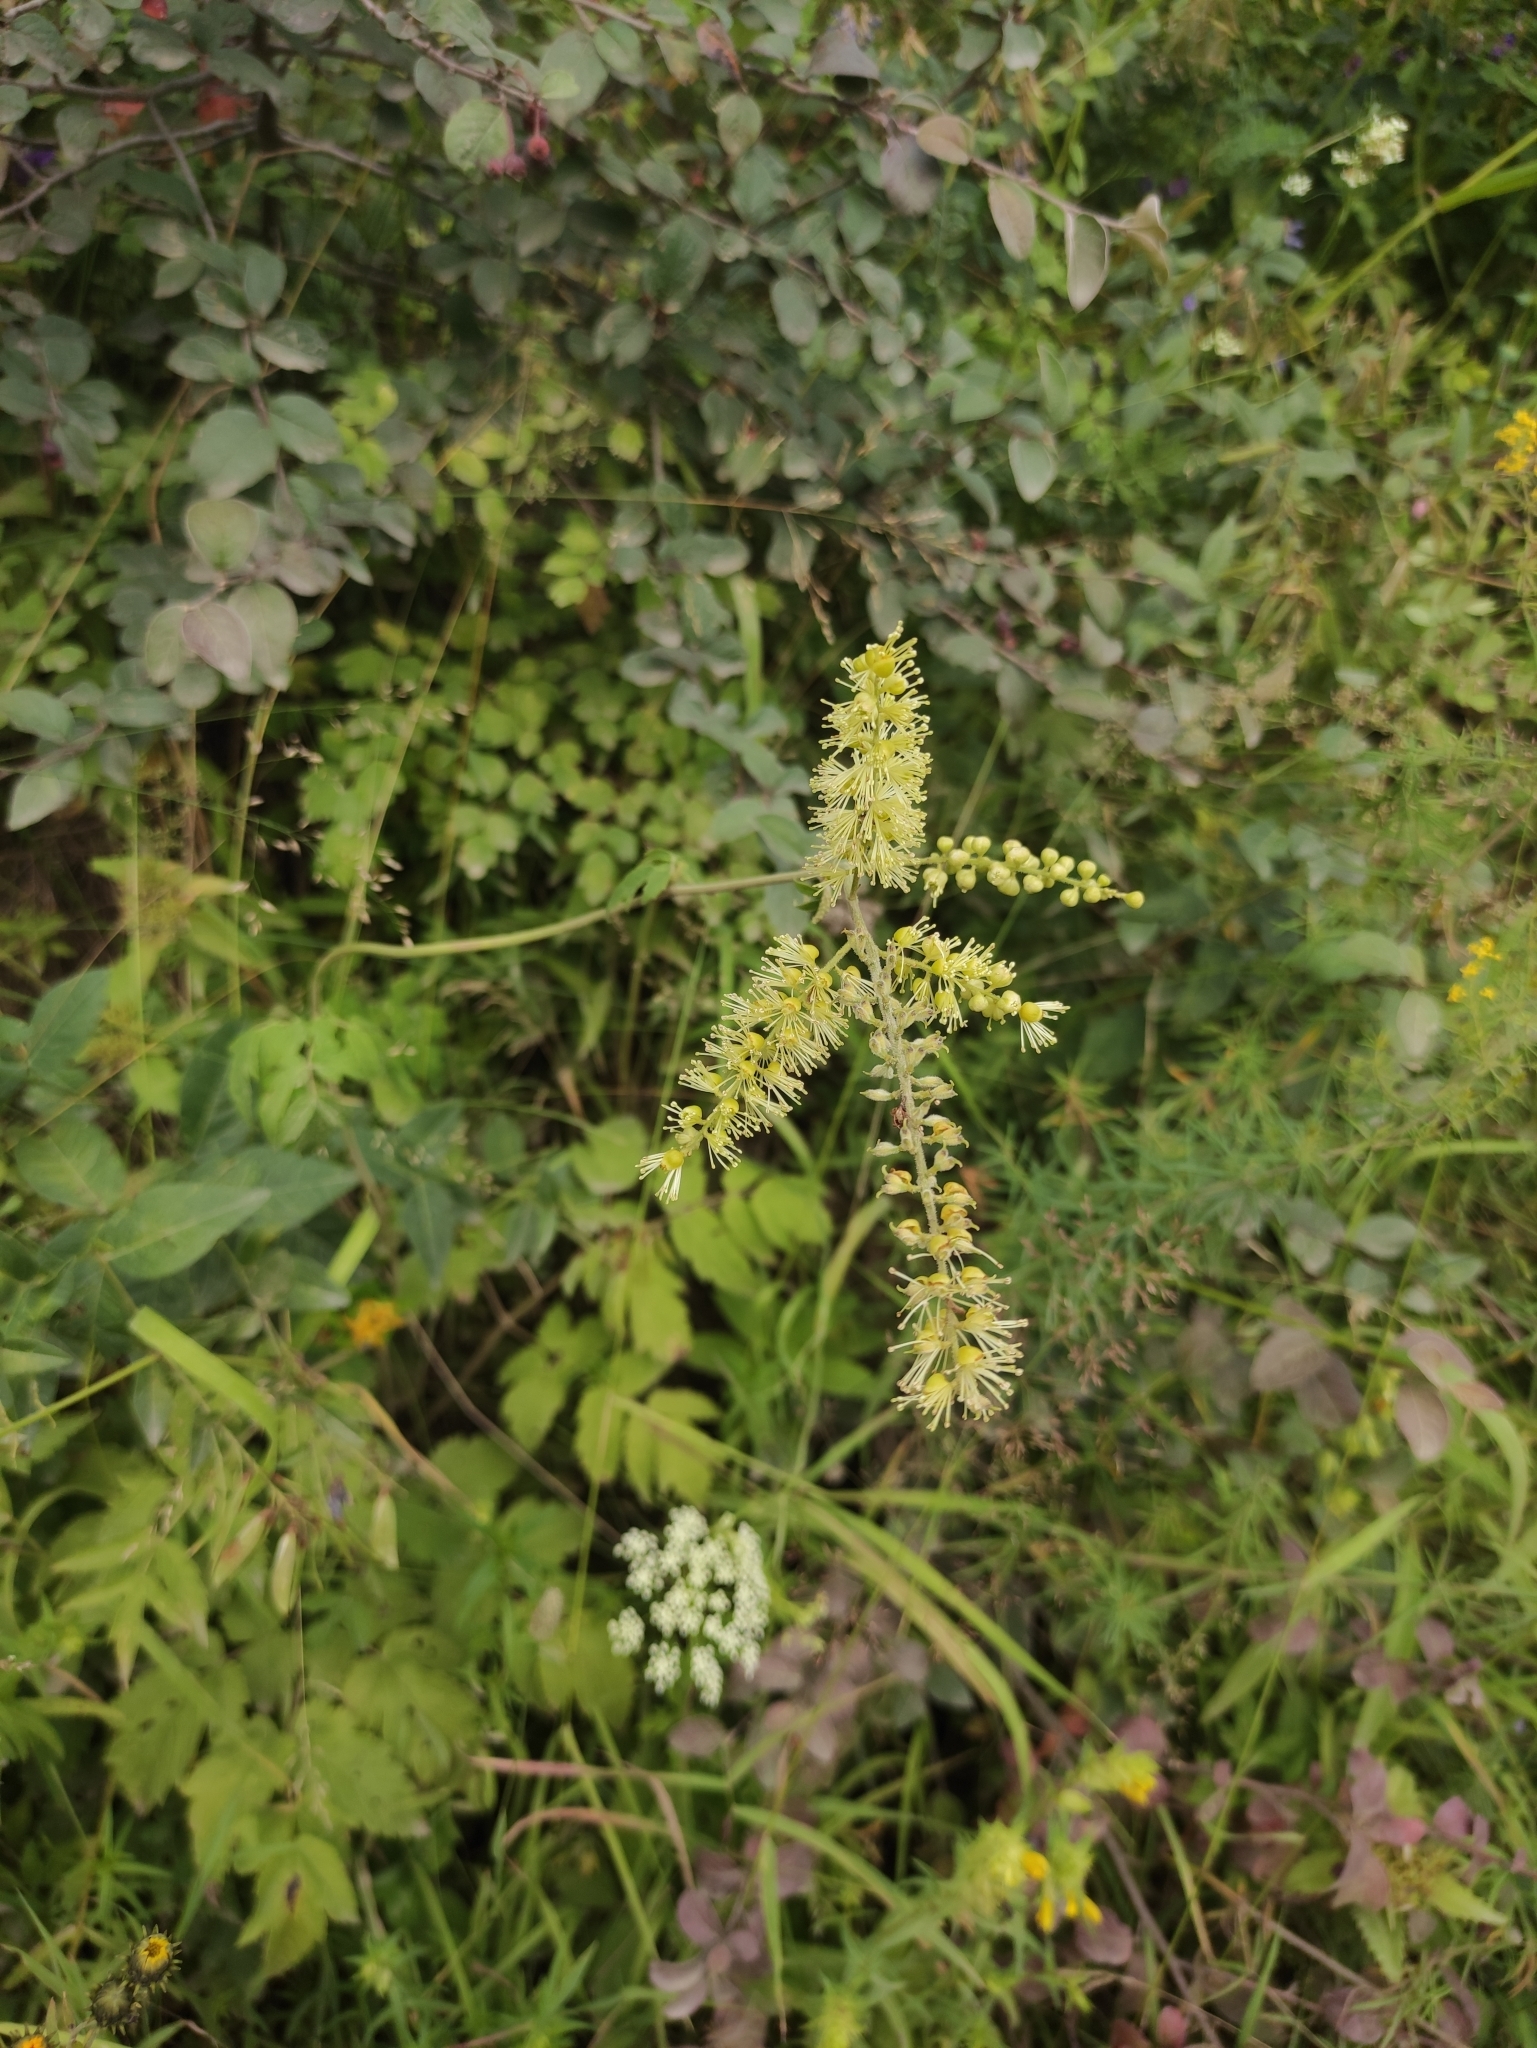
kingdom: Plantae
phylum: Tracheophyta
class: Magnoliopsida
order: Ranunculales
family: Ranunculaceae
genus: Actaea
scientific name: Actaea cimicifuga
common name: Chinese cimicifuga
